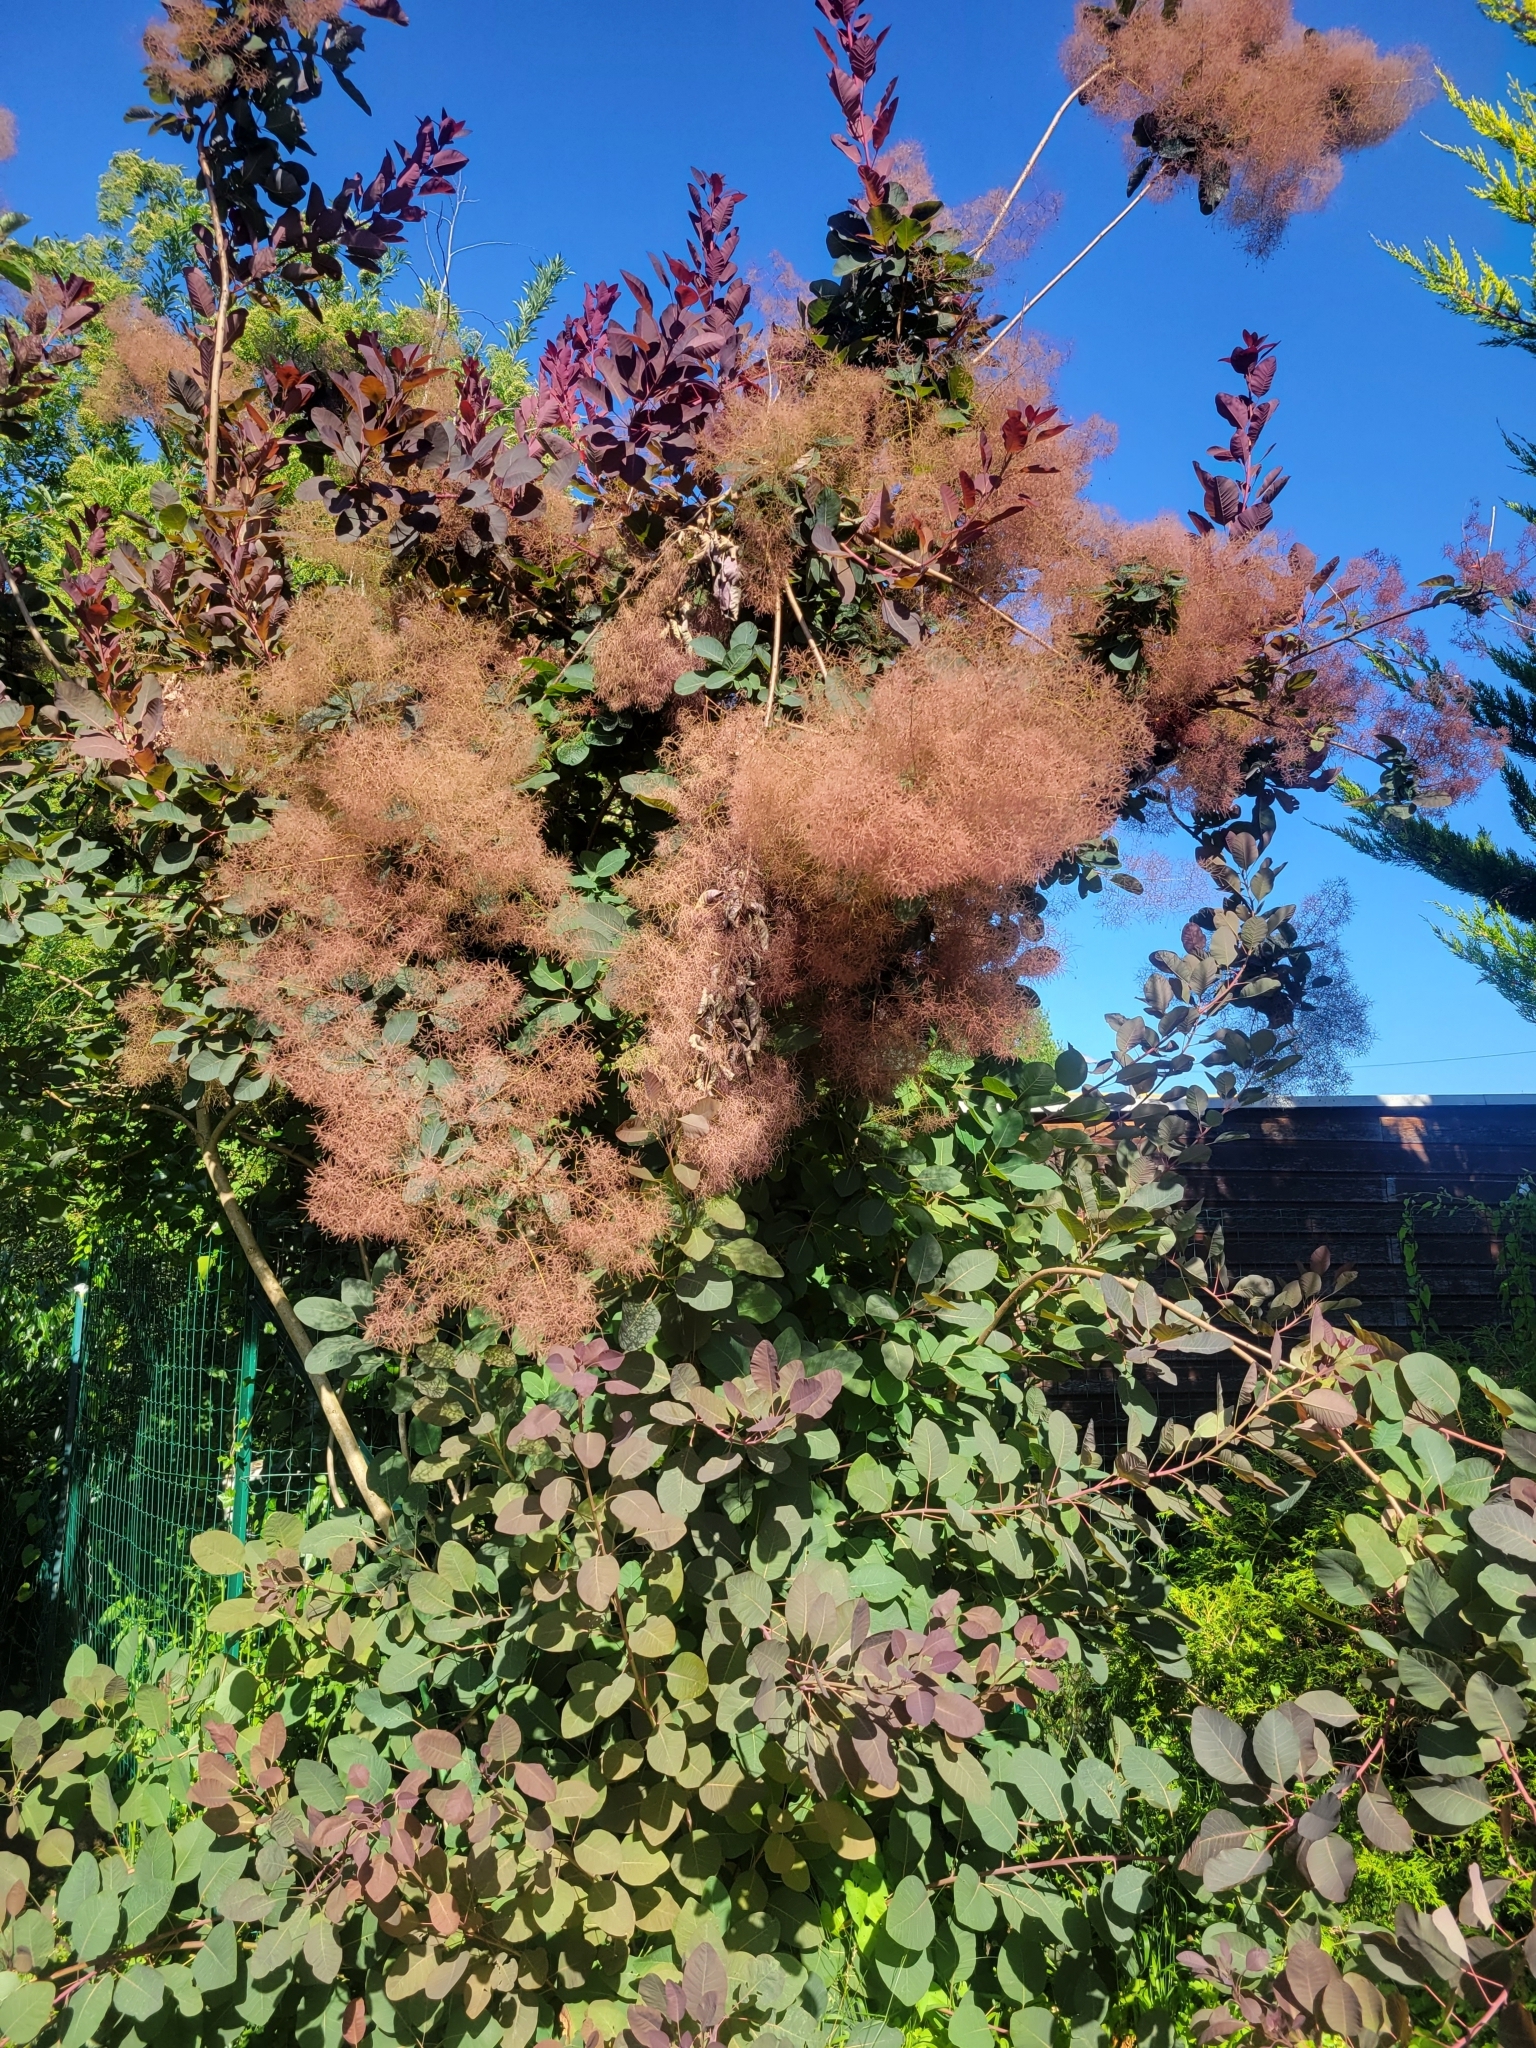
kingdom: Plantae
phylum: Tracheophyta
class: Magnoliopsida
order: Sapindales
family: Anacardiaceae
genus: Cotinus
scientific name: Cotinus coggygria
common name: Smoke-tree
